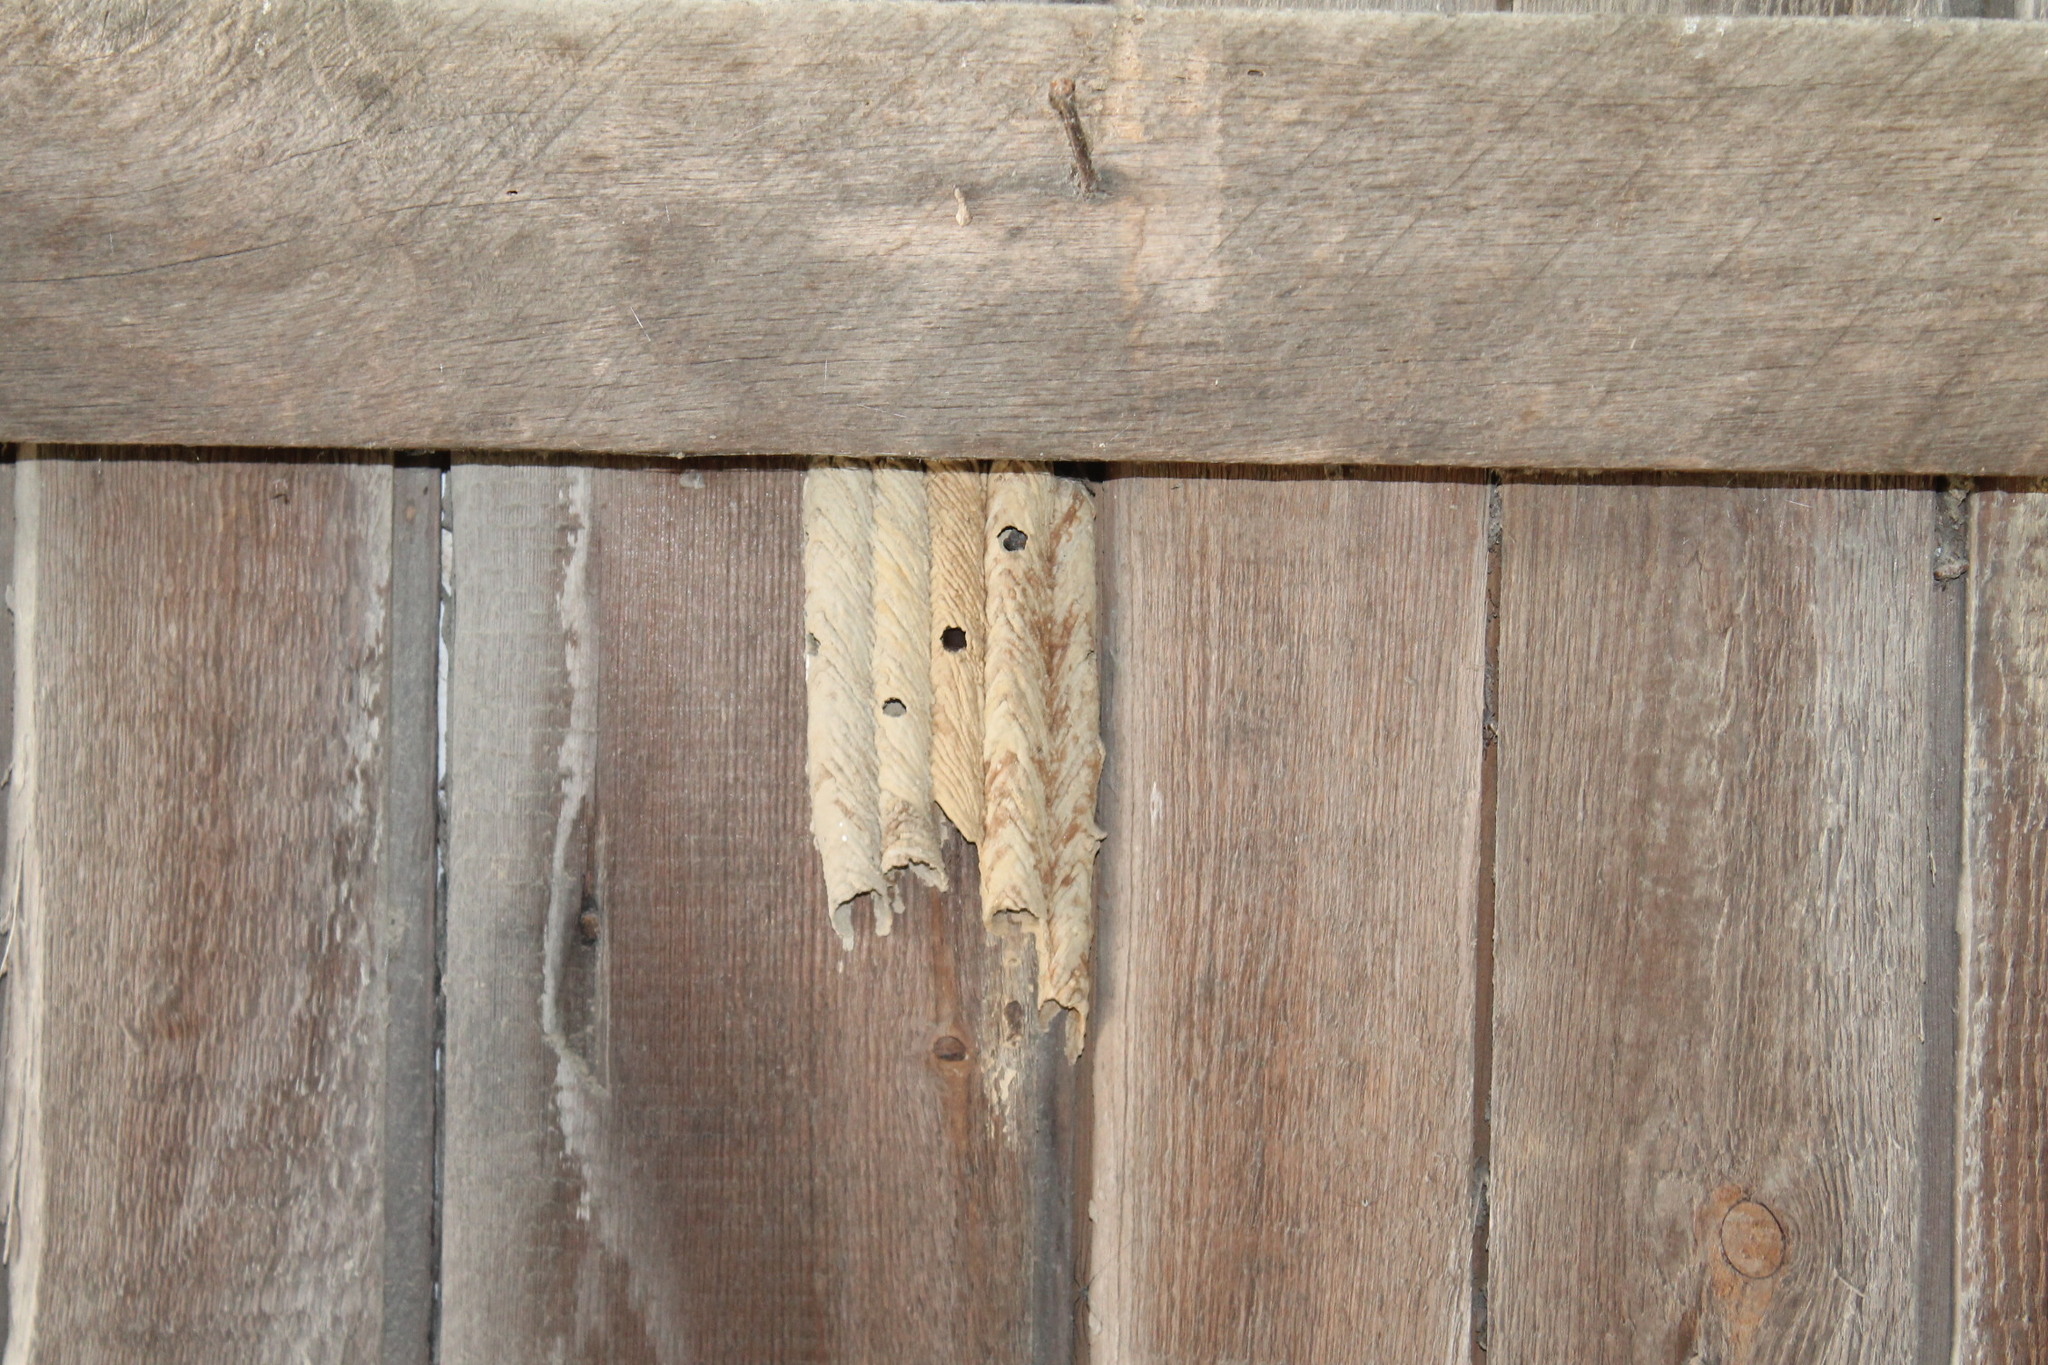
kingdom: Animalia
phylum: Arthropoda
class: Insecta
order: Hymenoptera
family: Crabronidae
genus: Trypoxylon
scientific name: Trypoxylon politum
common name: Organ-pipe mud-dauber wasp
